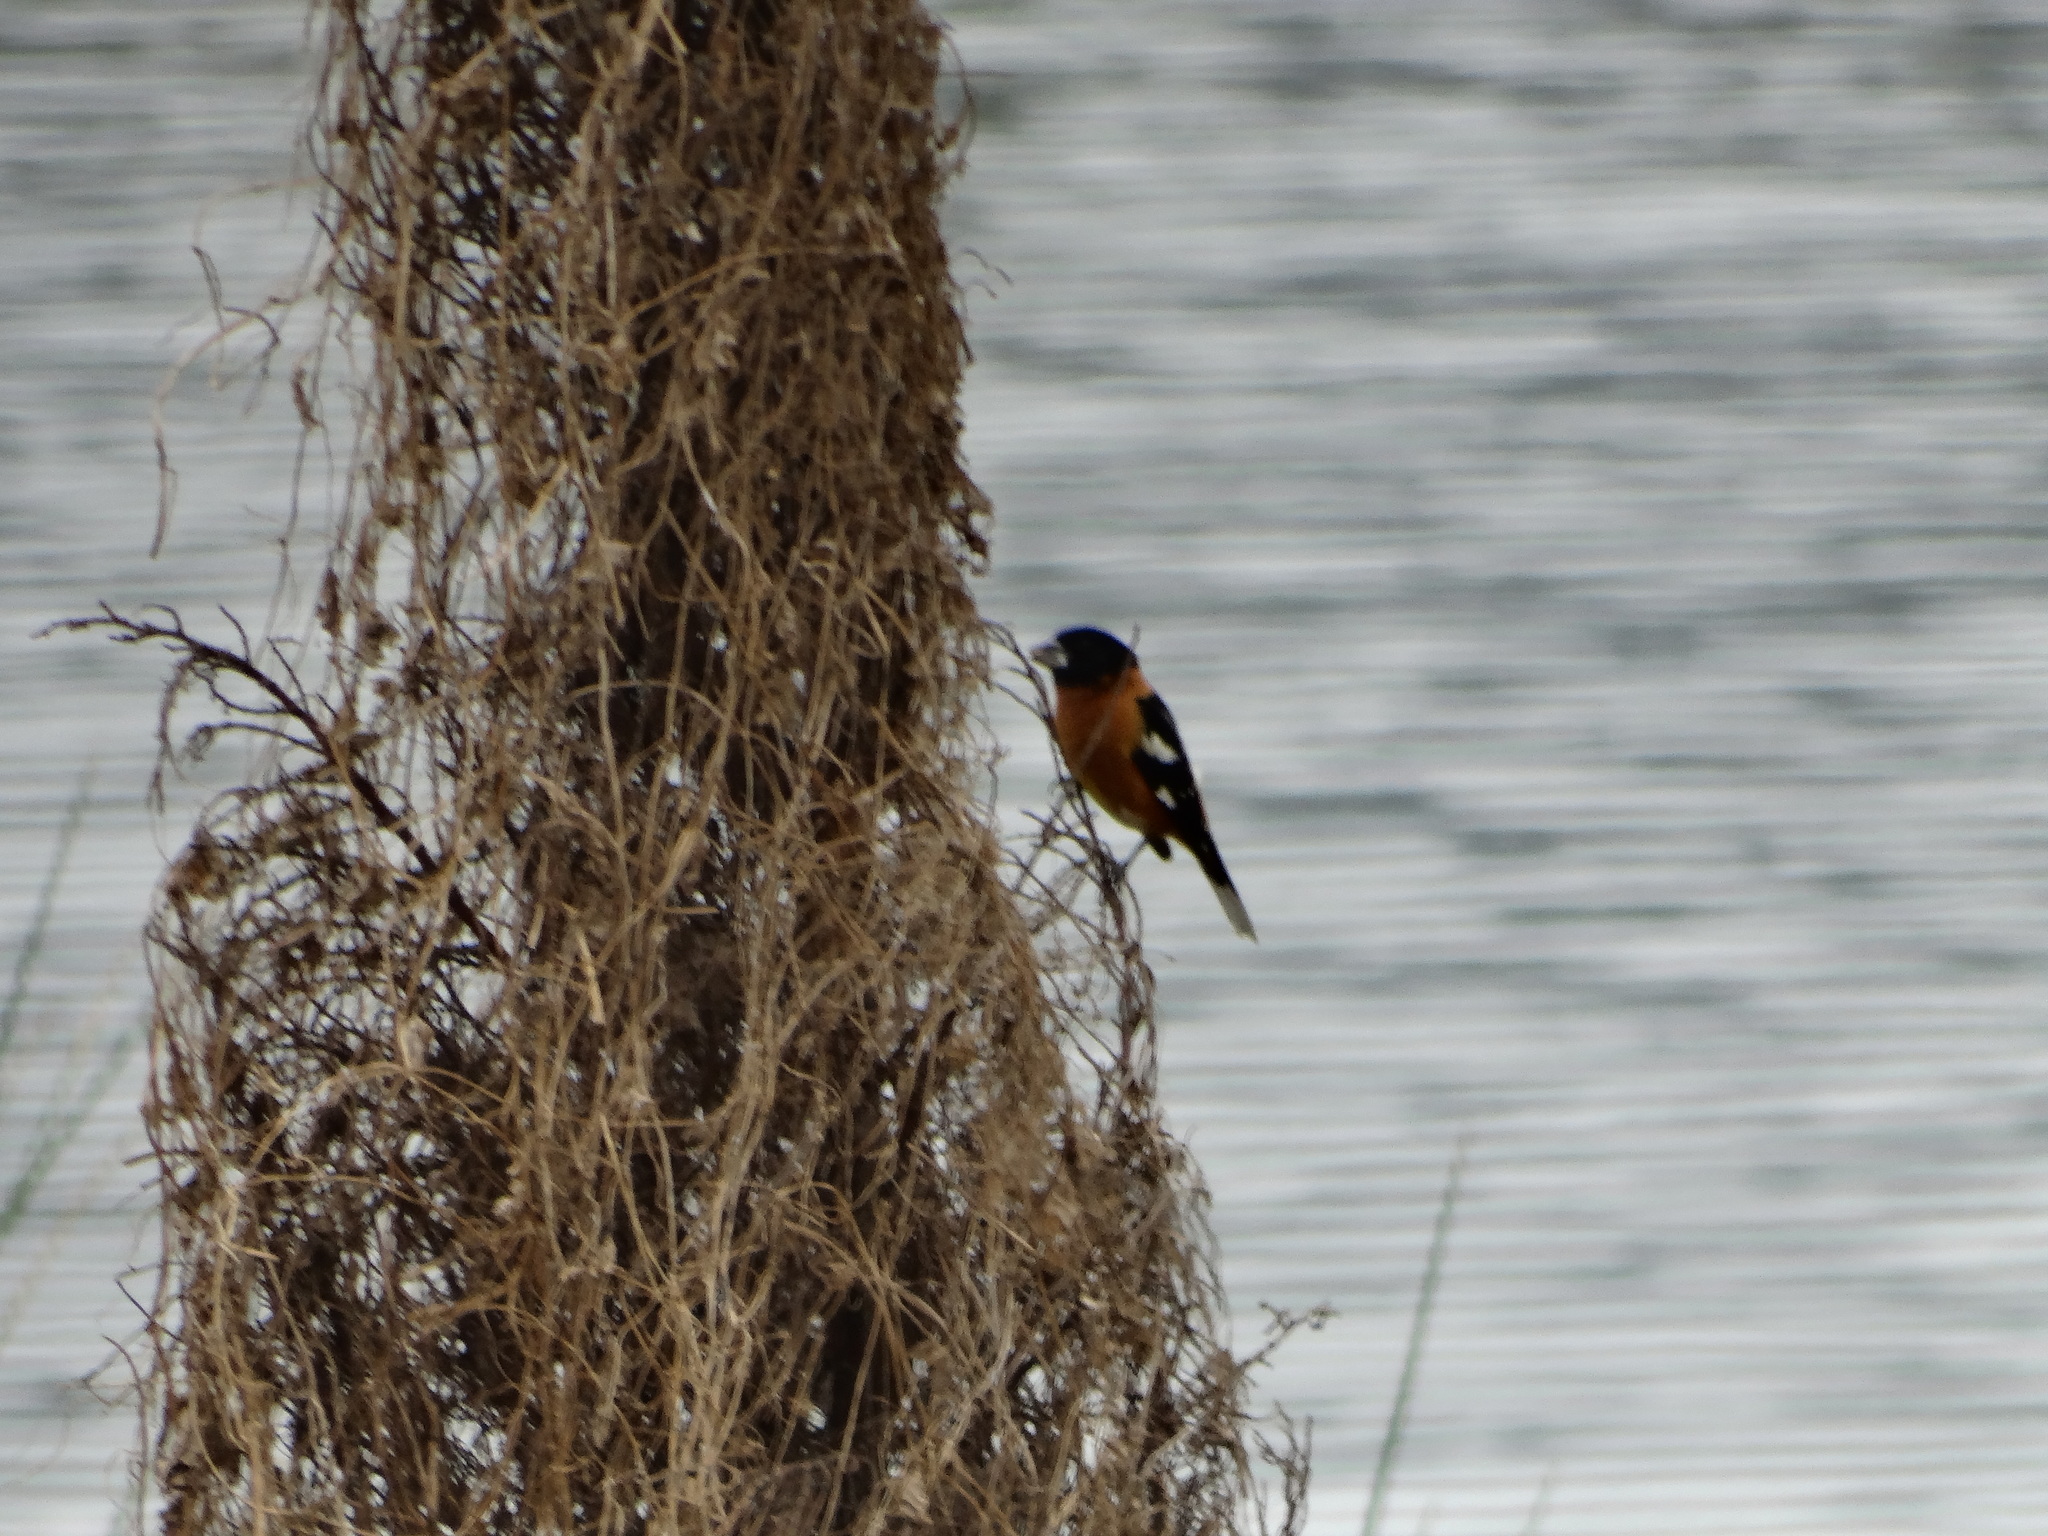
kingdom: Animalia
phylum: Chordata
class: Aves
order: Passeriformes
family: Cardinalidae
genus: Pheucticus
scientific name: Pheucticus melanocephalus
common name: Black-headed grosbeak
